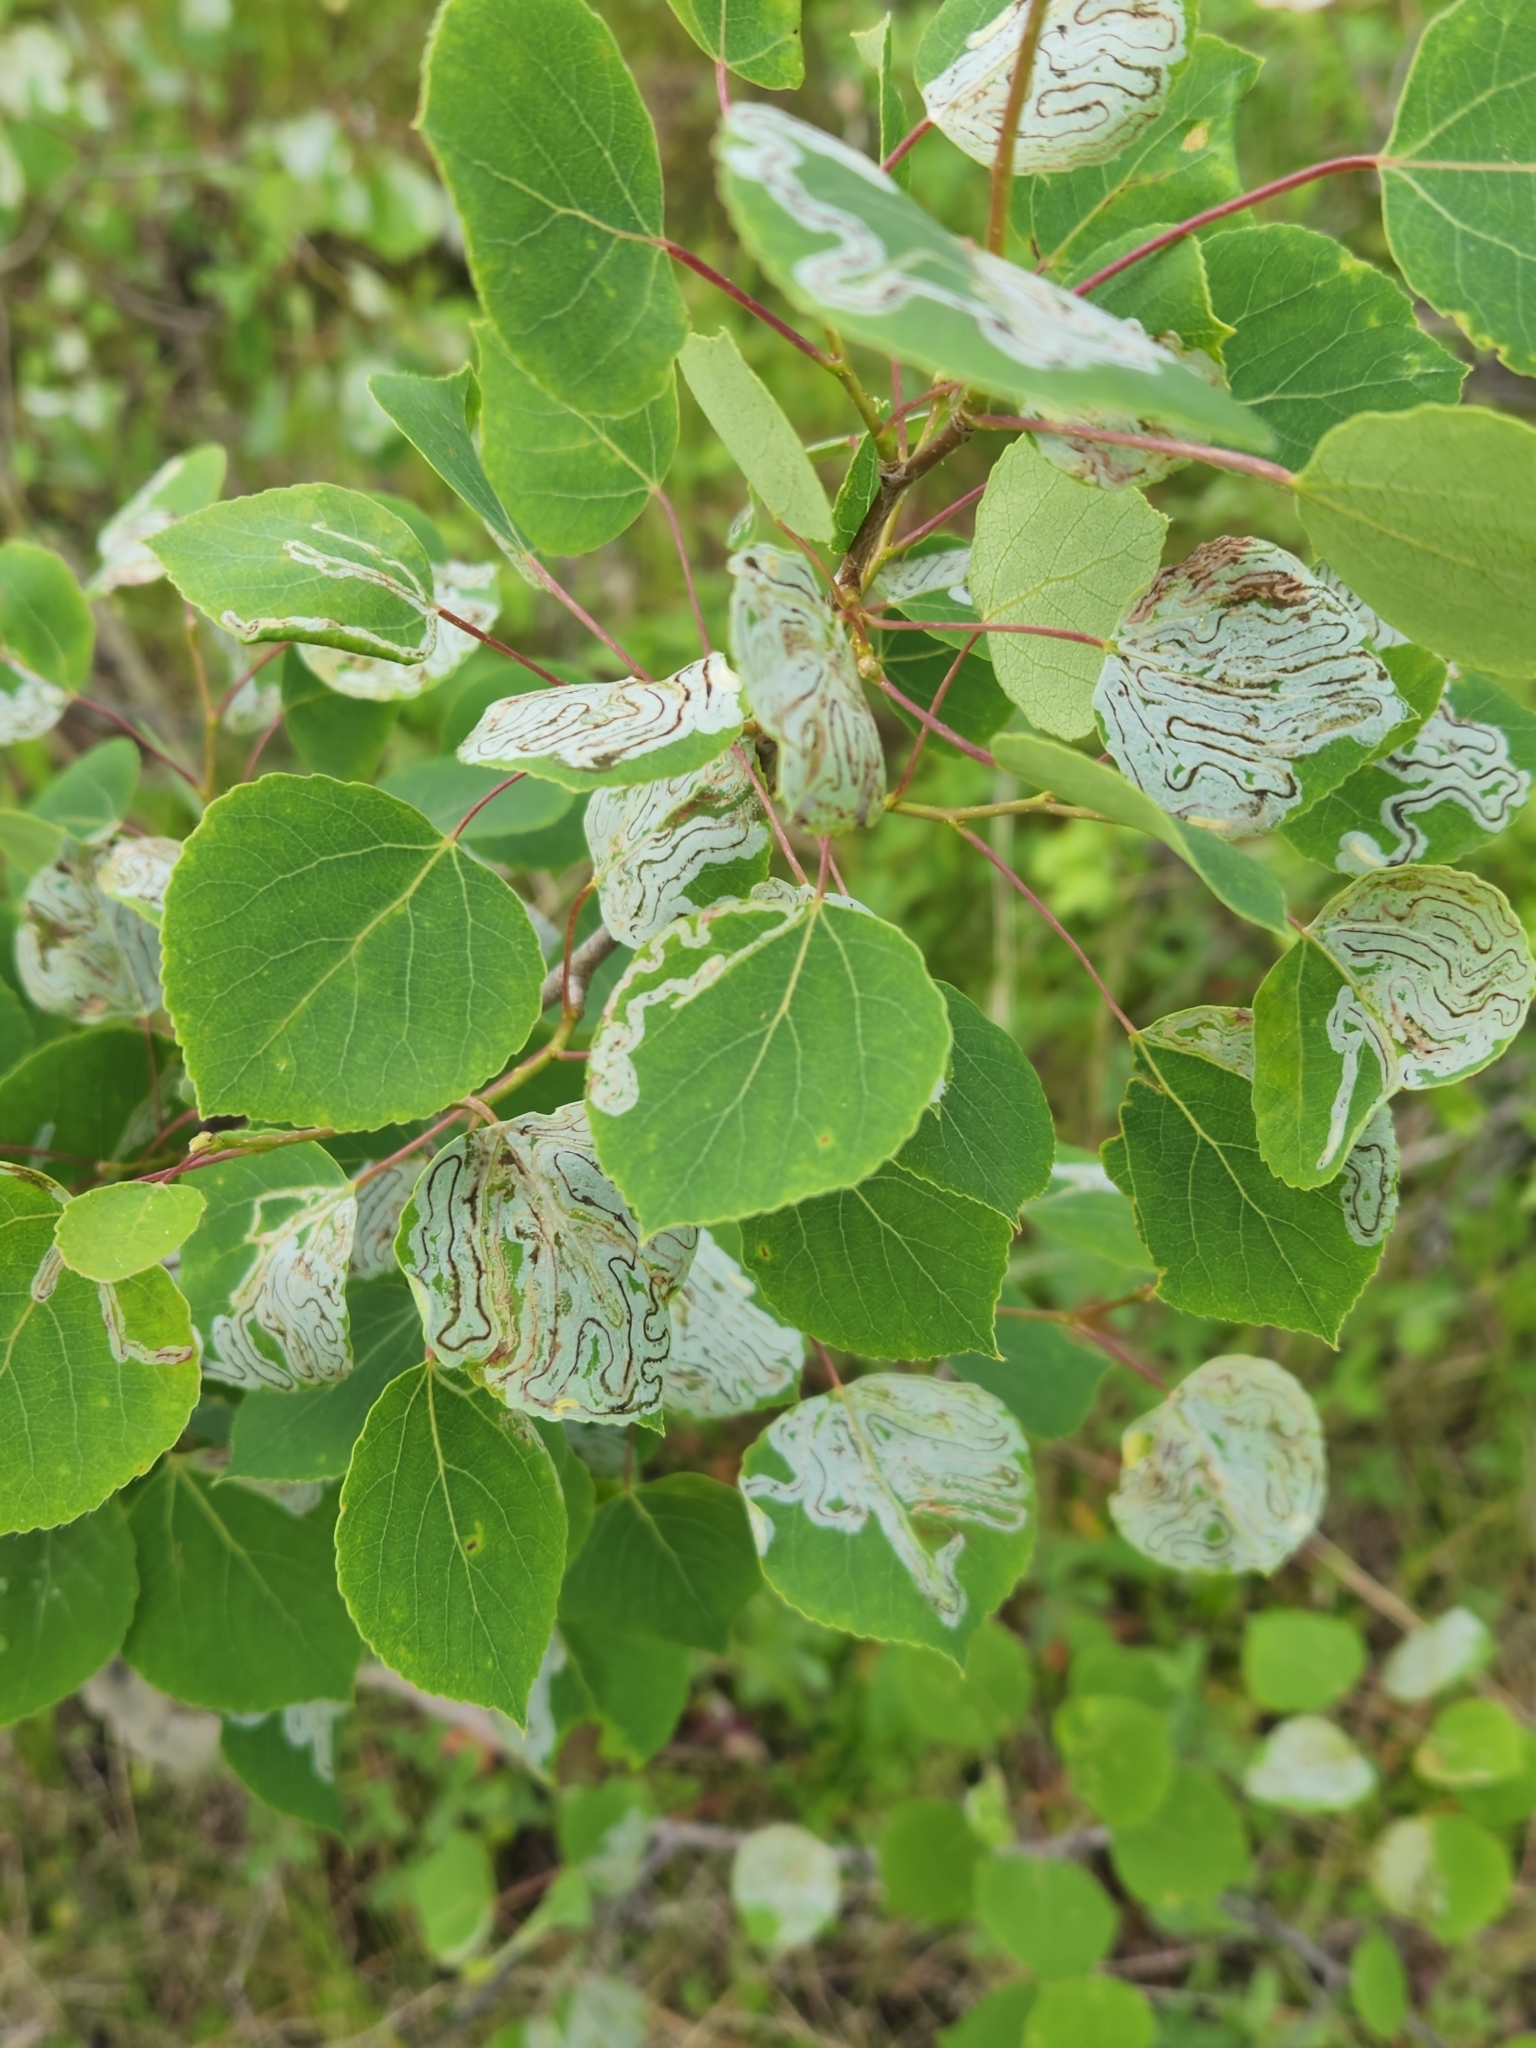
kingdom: Animalia
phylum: Arthropoda
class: Insecta
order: Lepidoptera
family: Gracillariidae
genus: Phyllocnistis
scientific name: Phyllocnistis populiella
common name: Aspen serpentine leafminer moth
